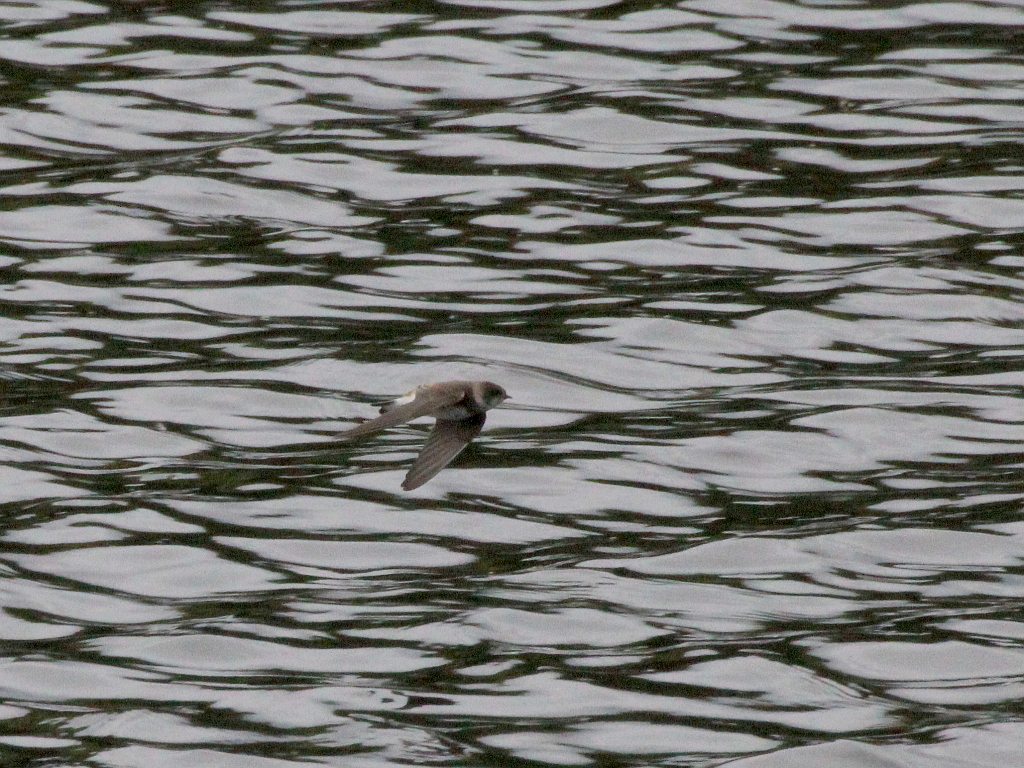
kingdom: Animalia
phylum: Chordata
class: Aves
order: Passeriformes
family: Hirundinidae
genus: Riparia
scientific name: Riparia riparia
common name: Sand martin
